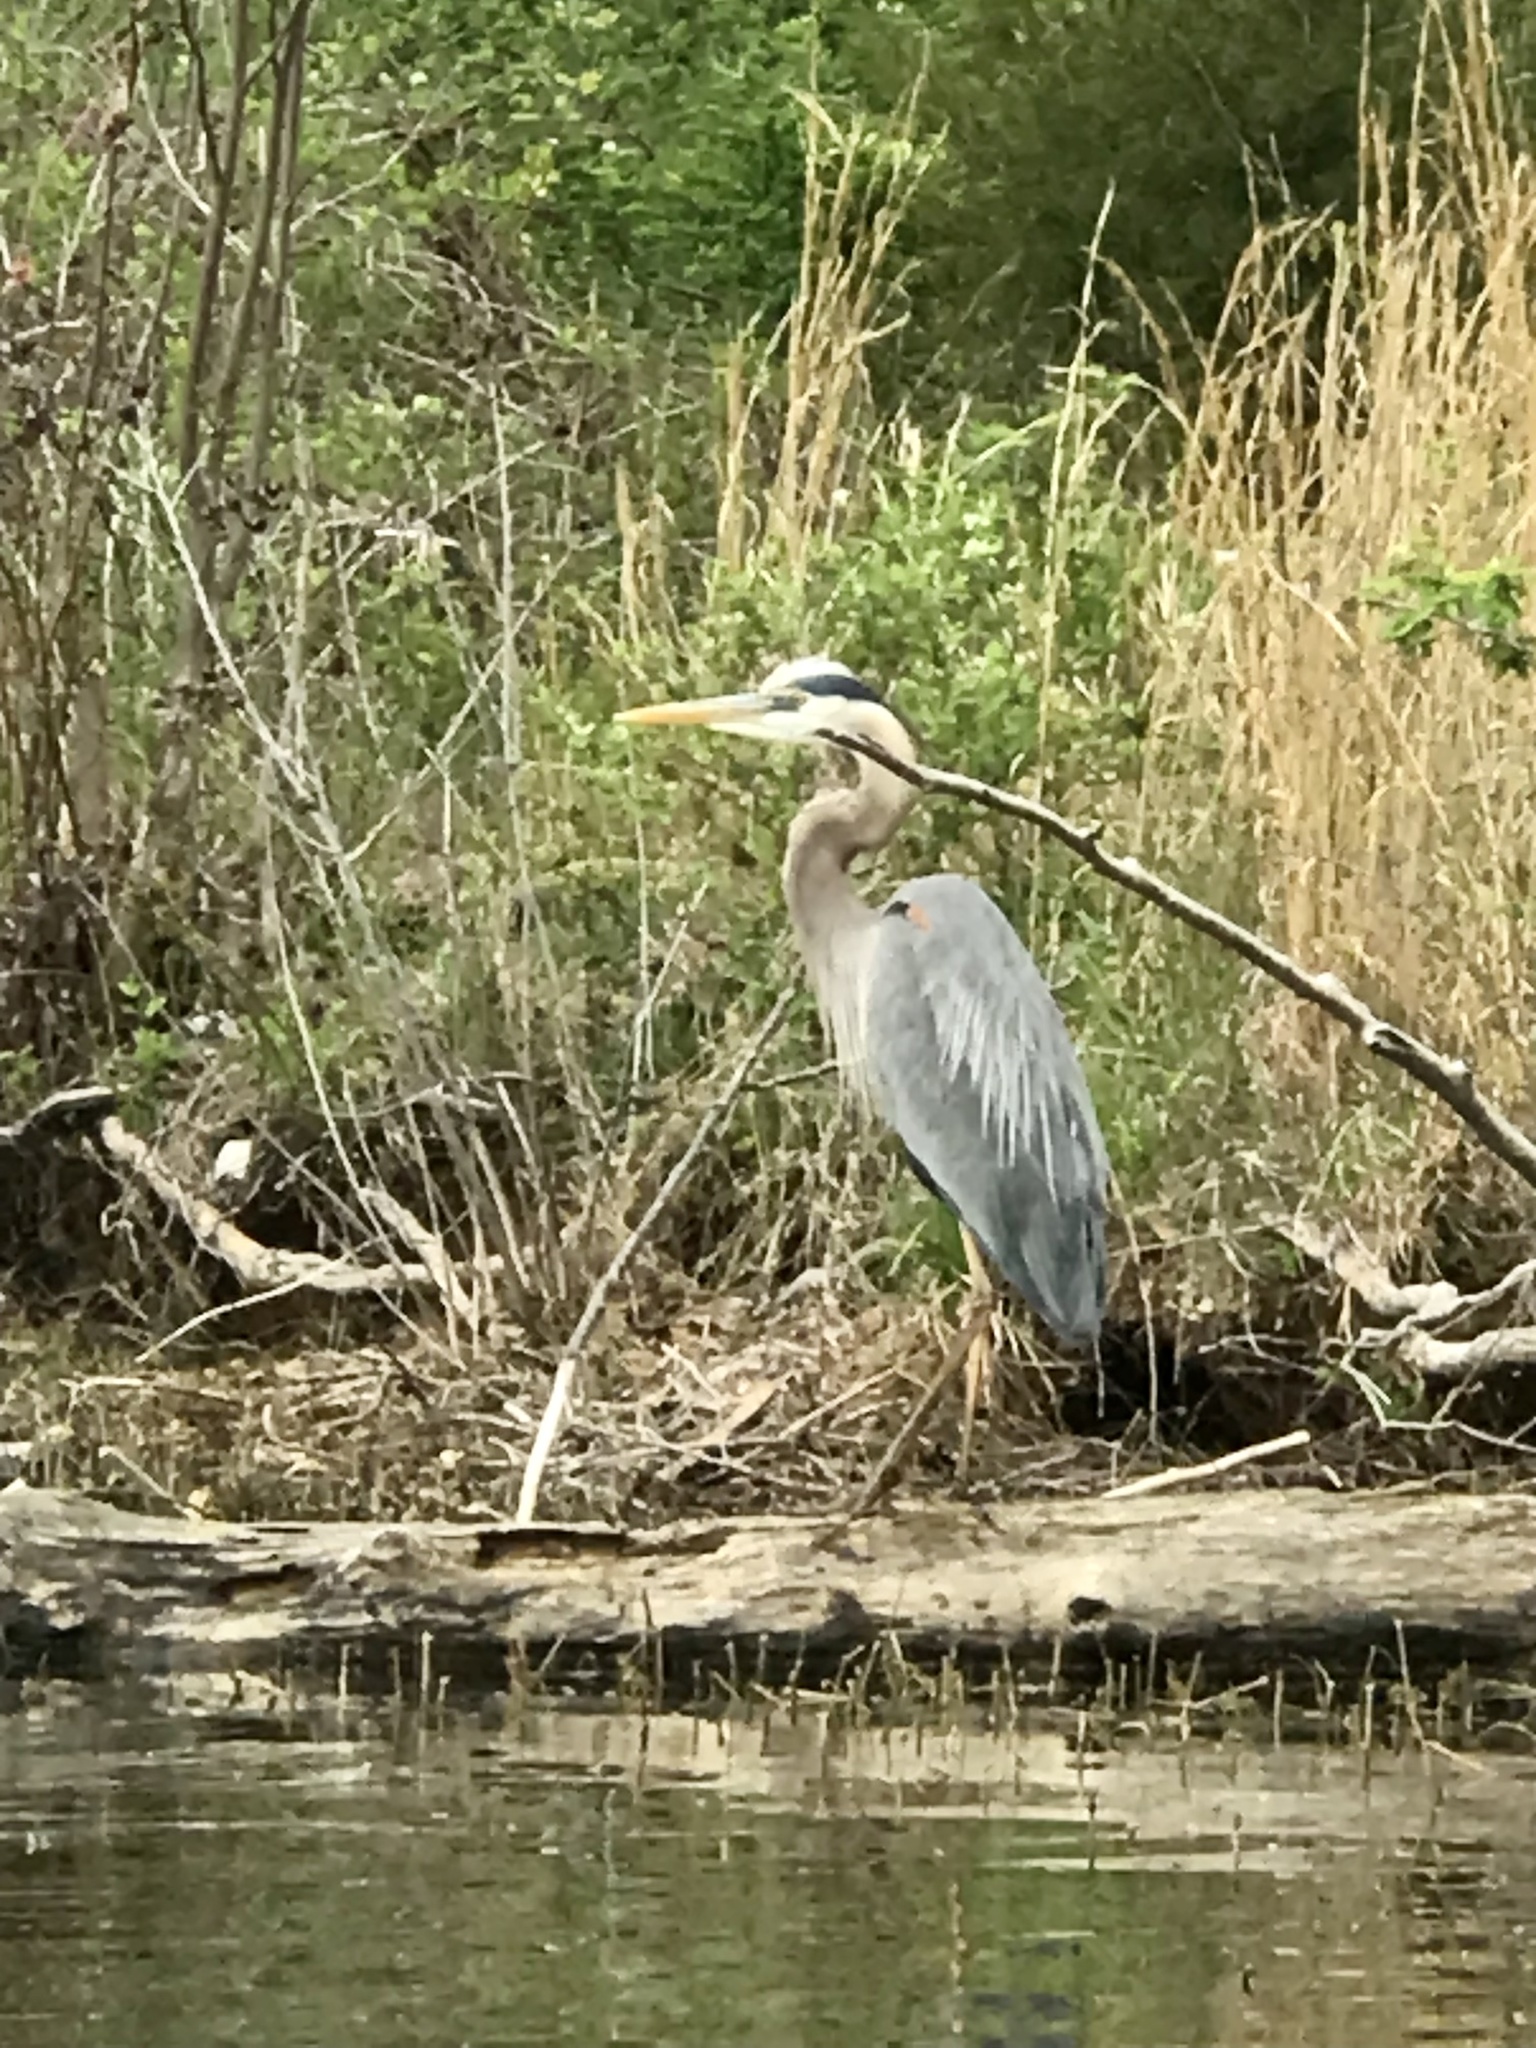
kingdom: Animalia
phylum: Chordata
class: Aves
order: Pelecaniformes
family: Ardeidae
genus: Ardea
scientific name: Ardea herodias
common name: Great blue heron
